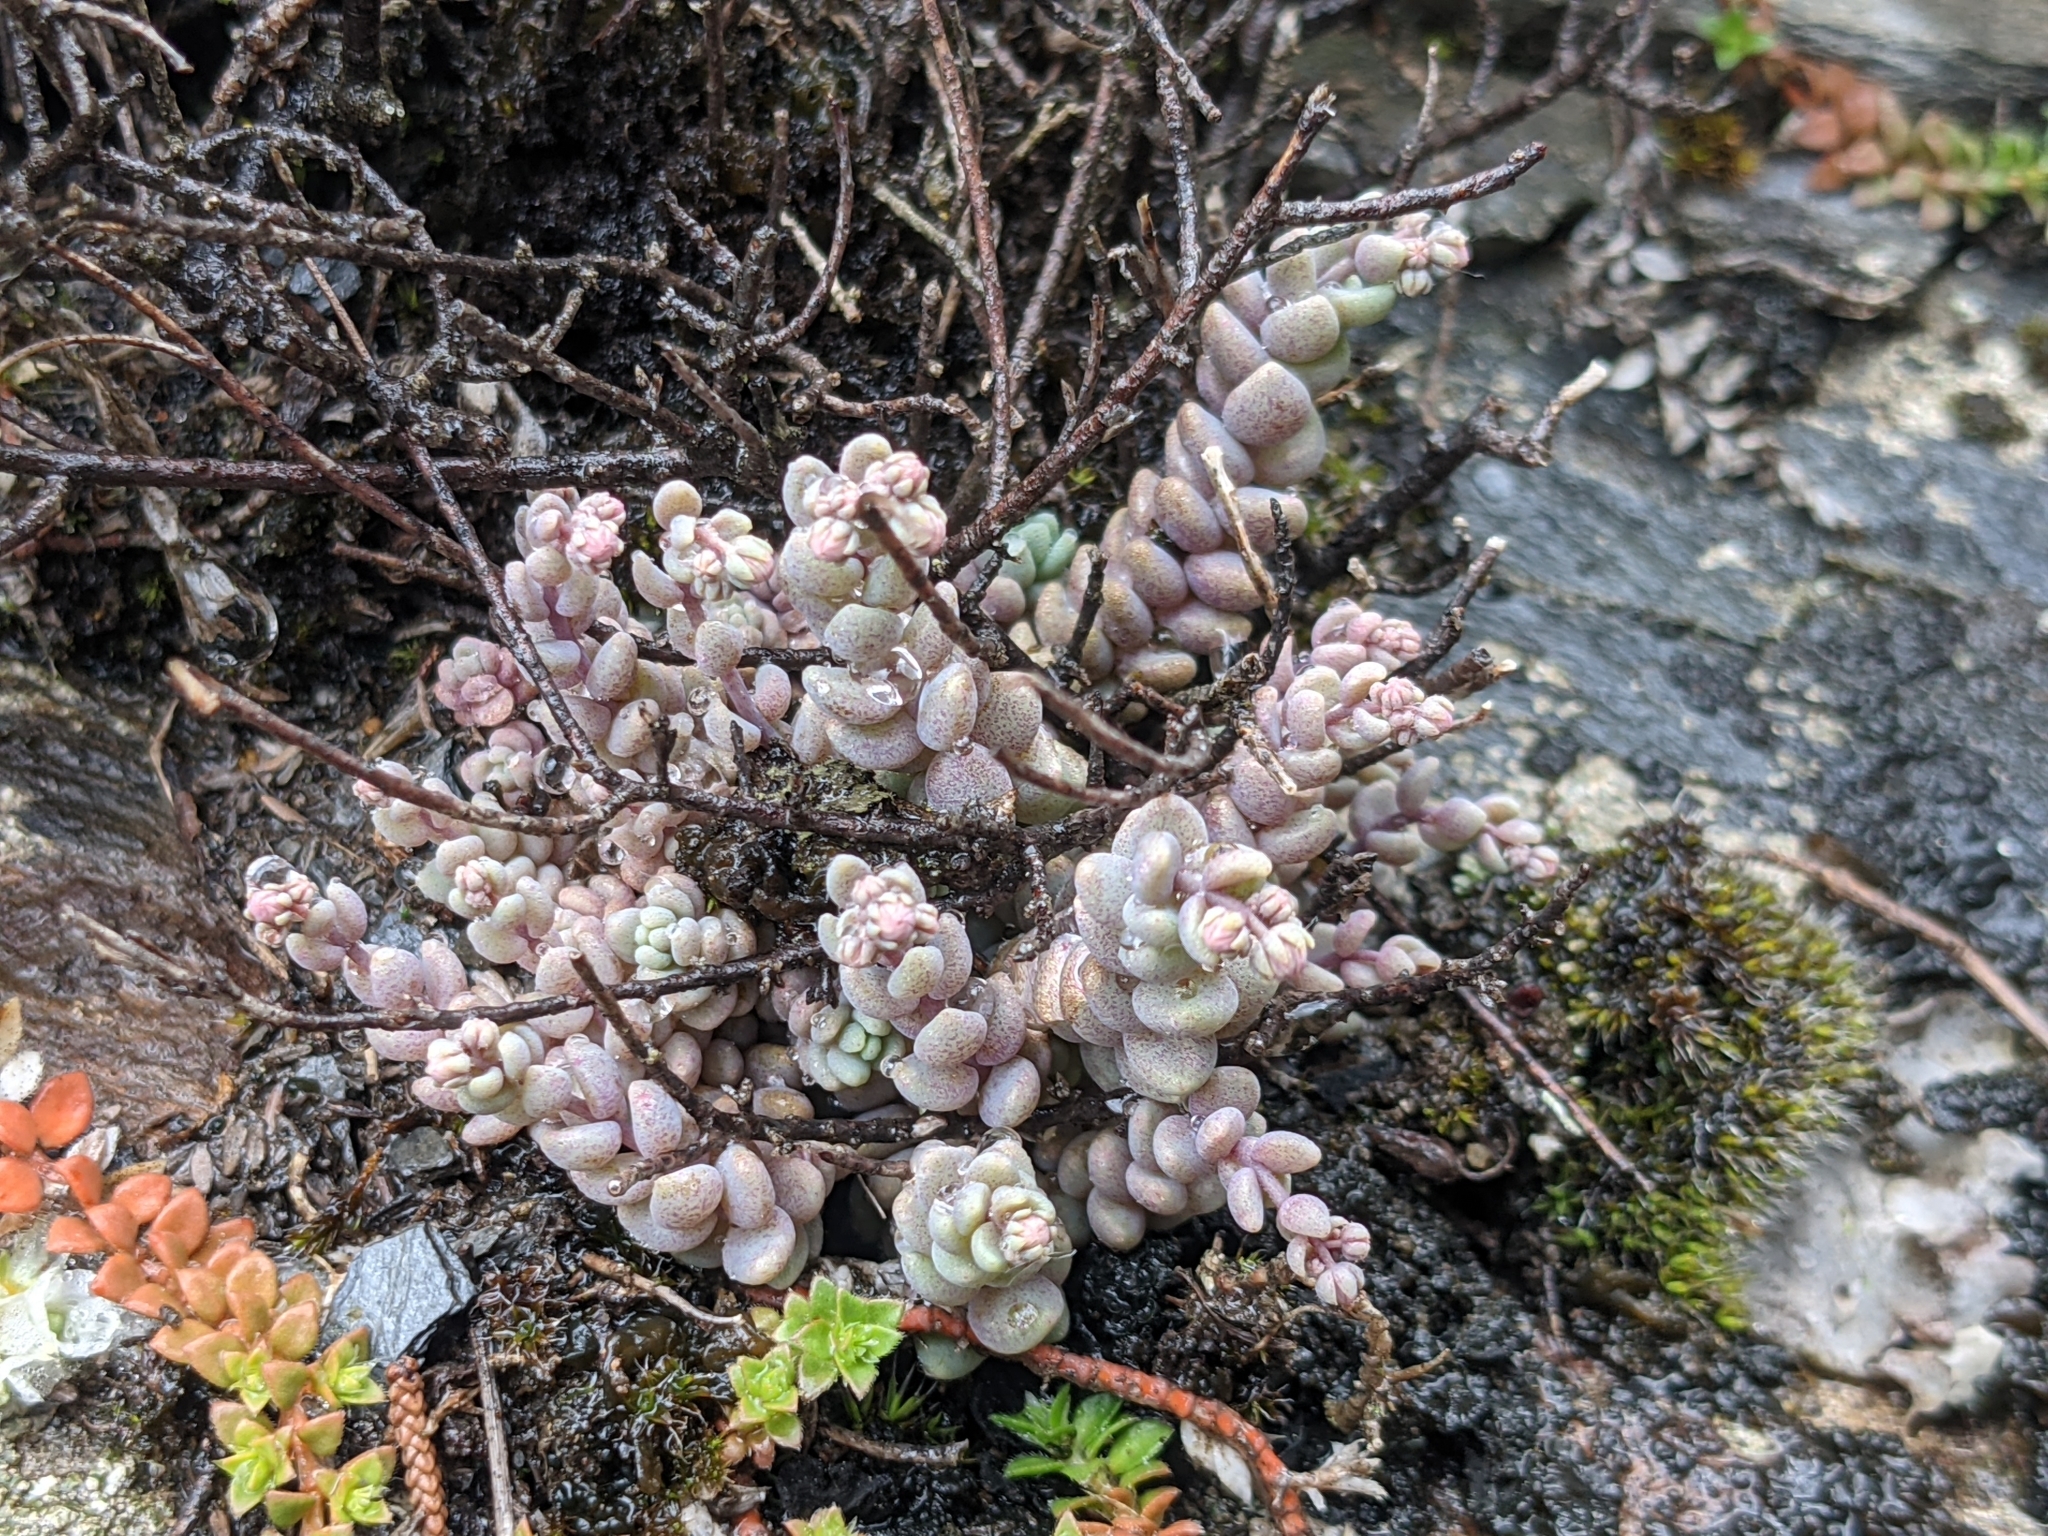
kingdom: Plantae
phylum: Tracheophyta
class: Magnoliopsida
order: Saxifragales
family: Crassulaceae
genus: Sedum
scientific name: Sedum dasyphyllum
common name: Thick-leaf stonecrop
